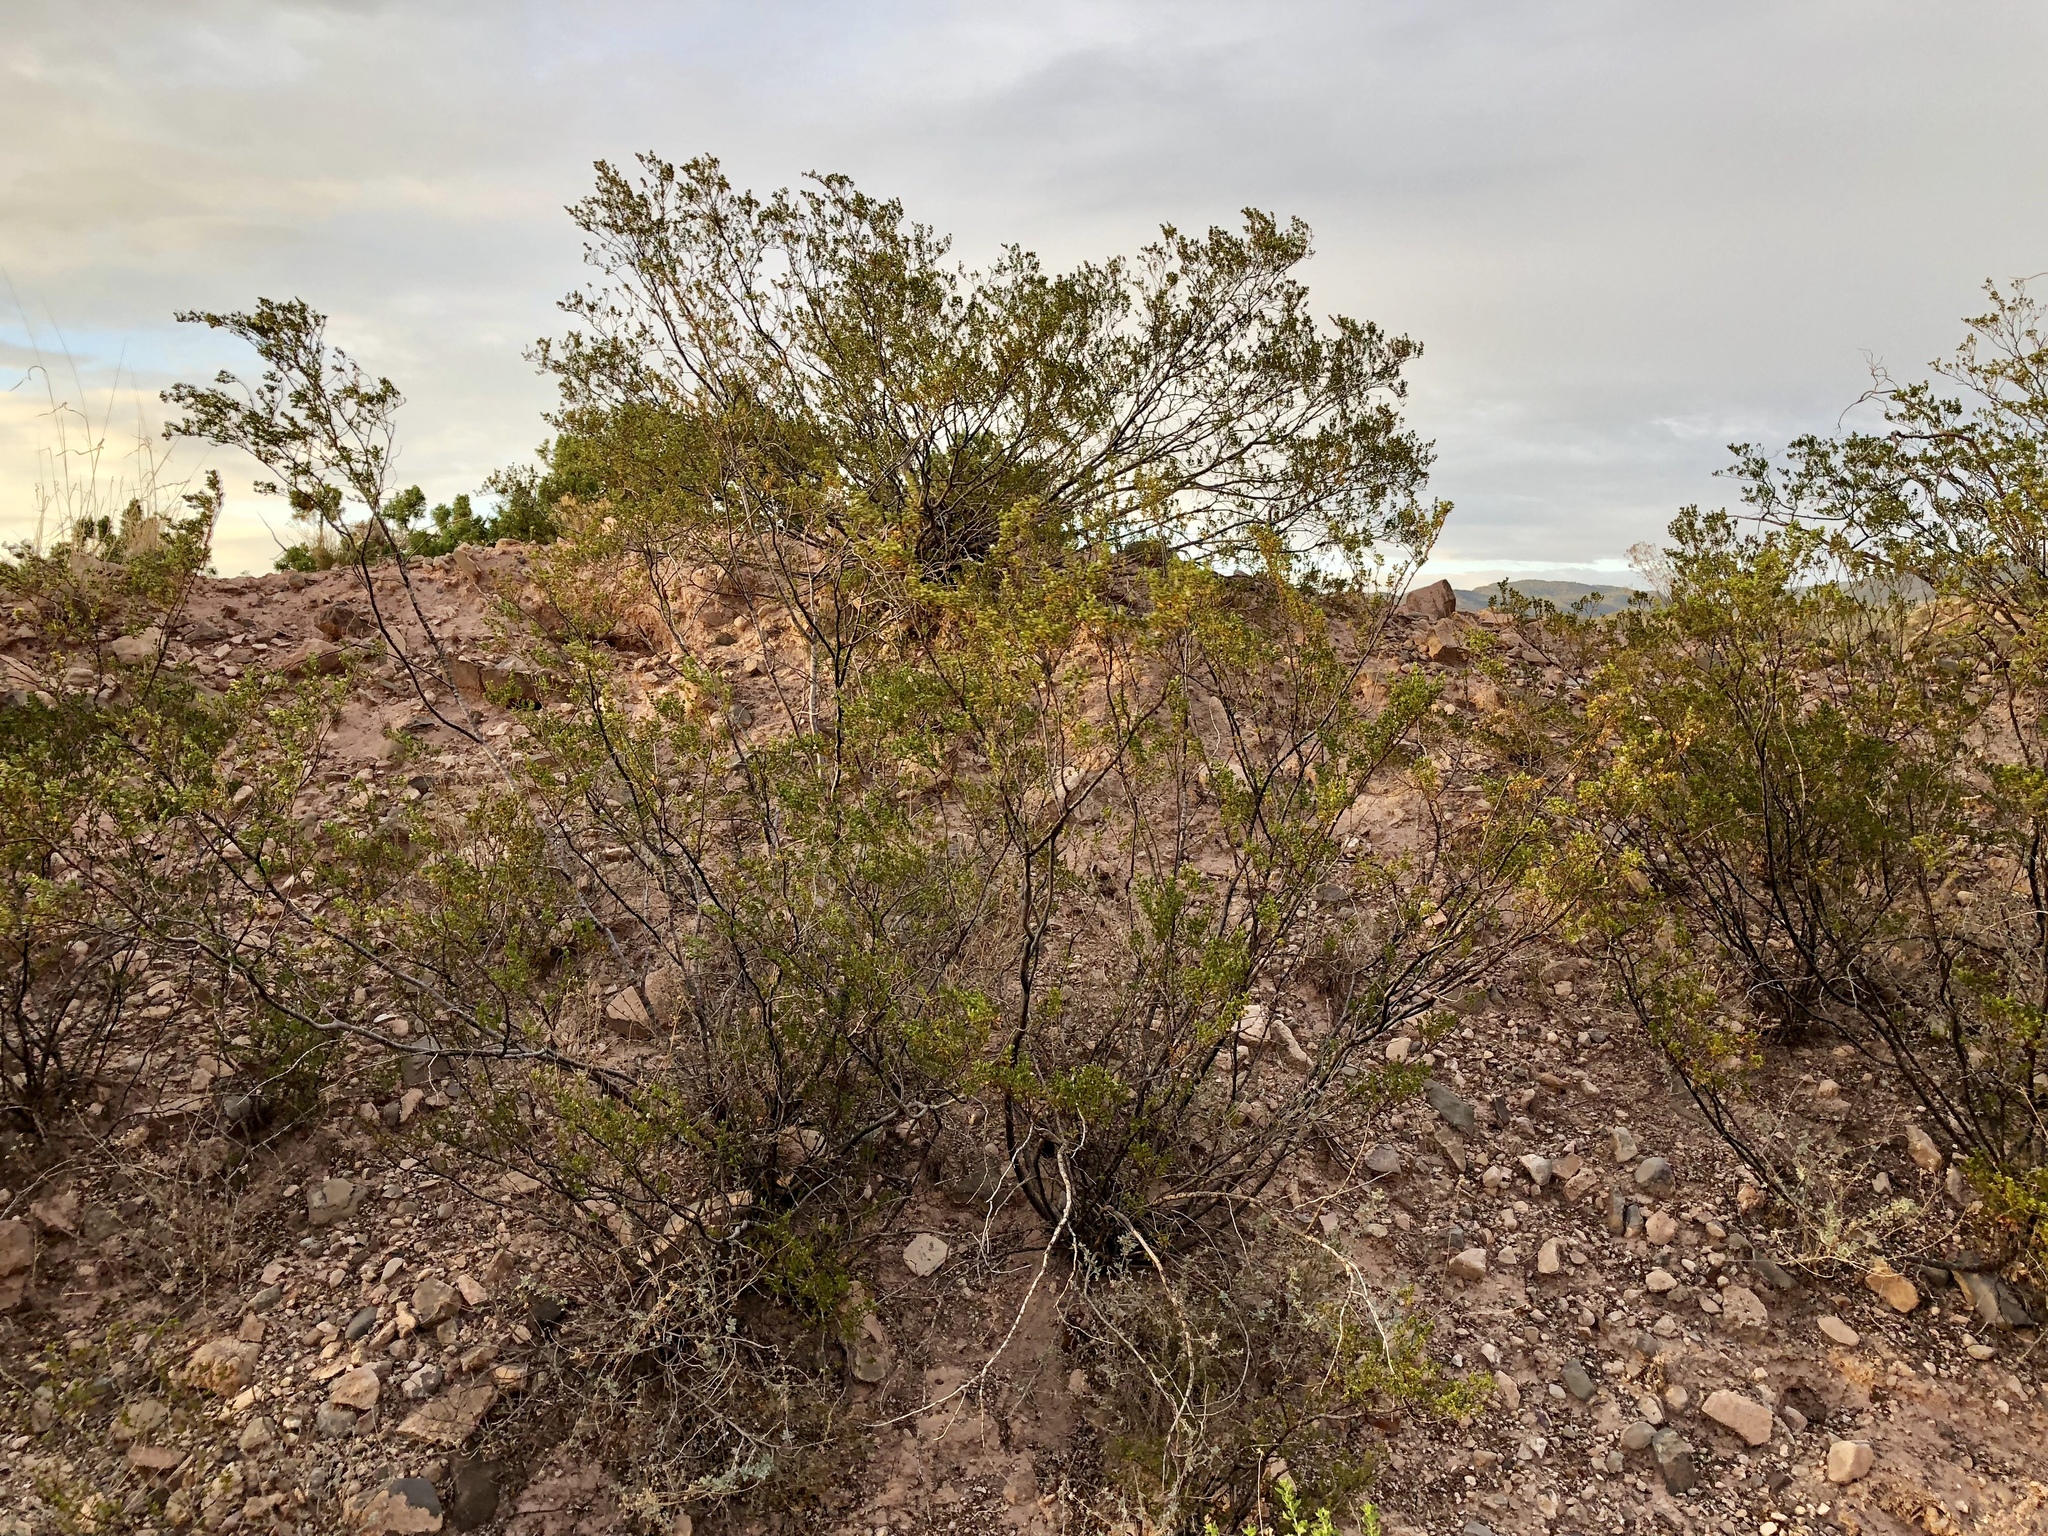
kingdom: Plantae
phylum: Tracheophyta
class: Magnoliopsida
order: Zygophyllales
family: Zygophyllaceae
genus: Larrea
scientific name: Larrea tridentata
